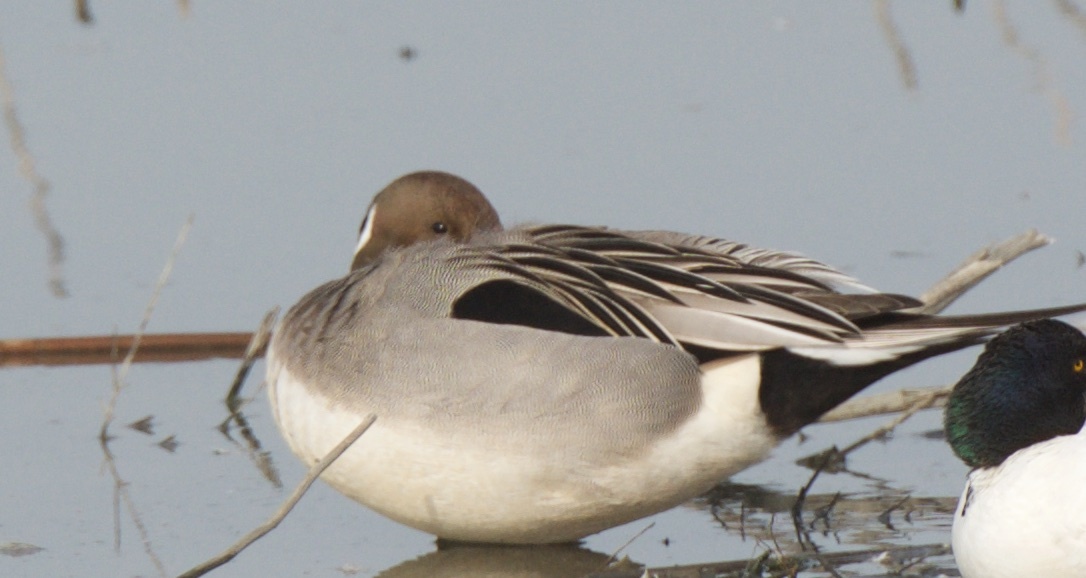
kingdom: Animalia
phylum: Chordata
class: Aves
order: Anseriformes
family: Anatidae
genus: Anas
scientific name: Anas acuta
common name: Northern pintail
